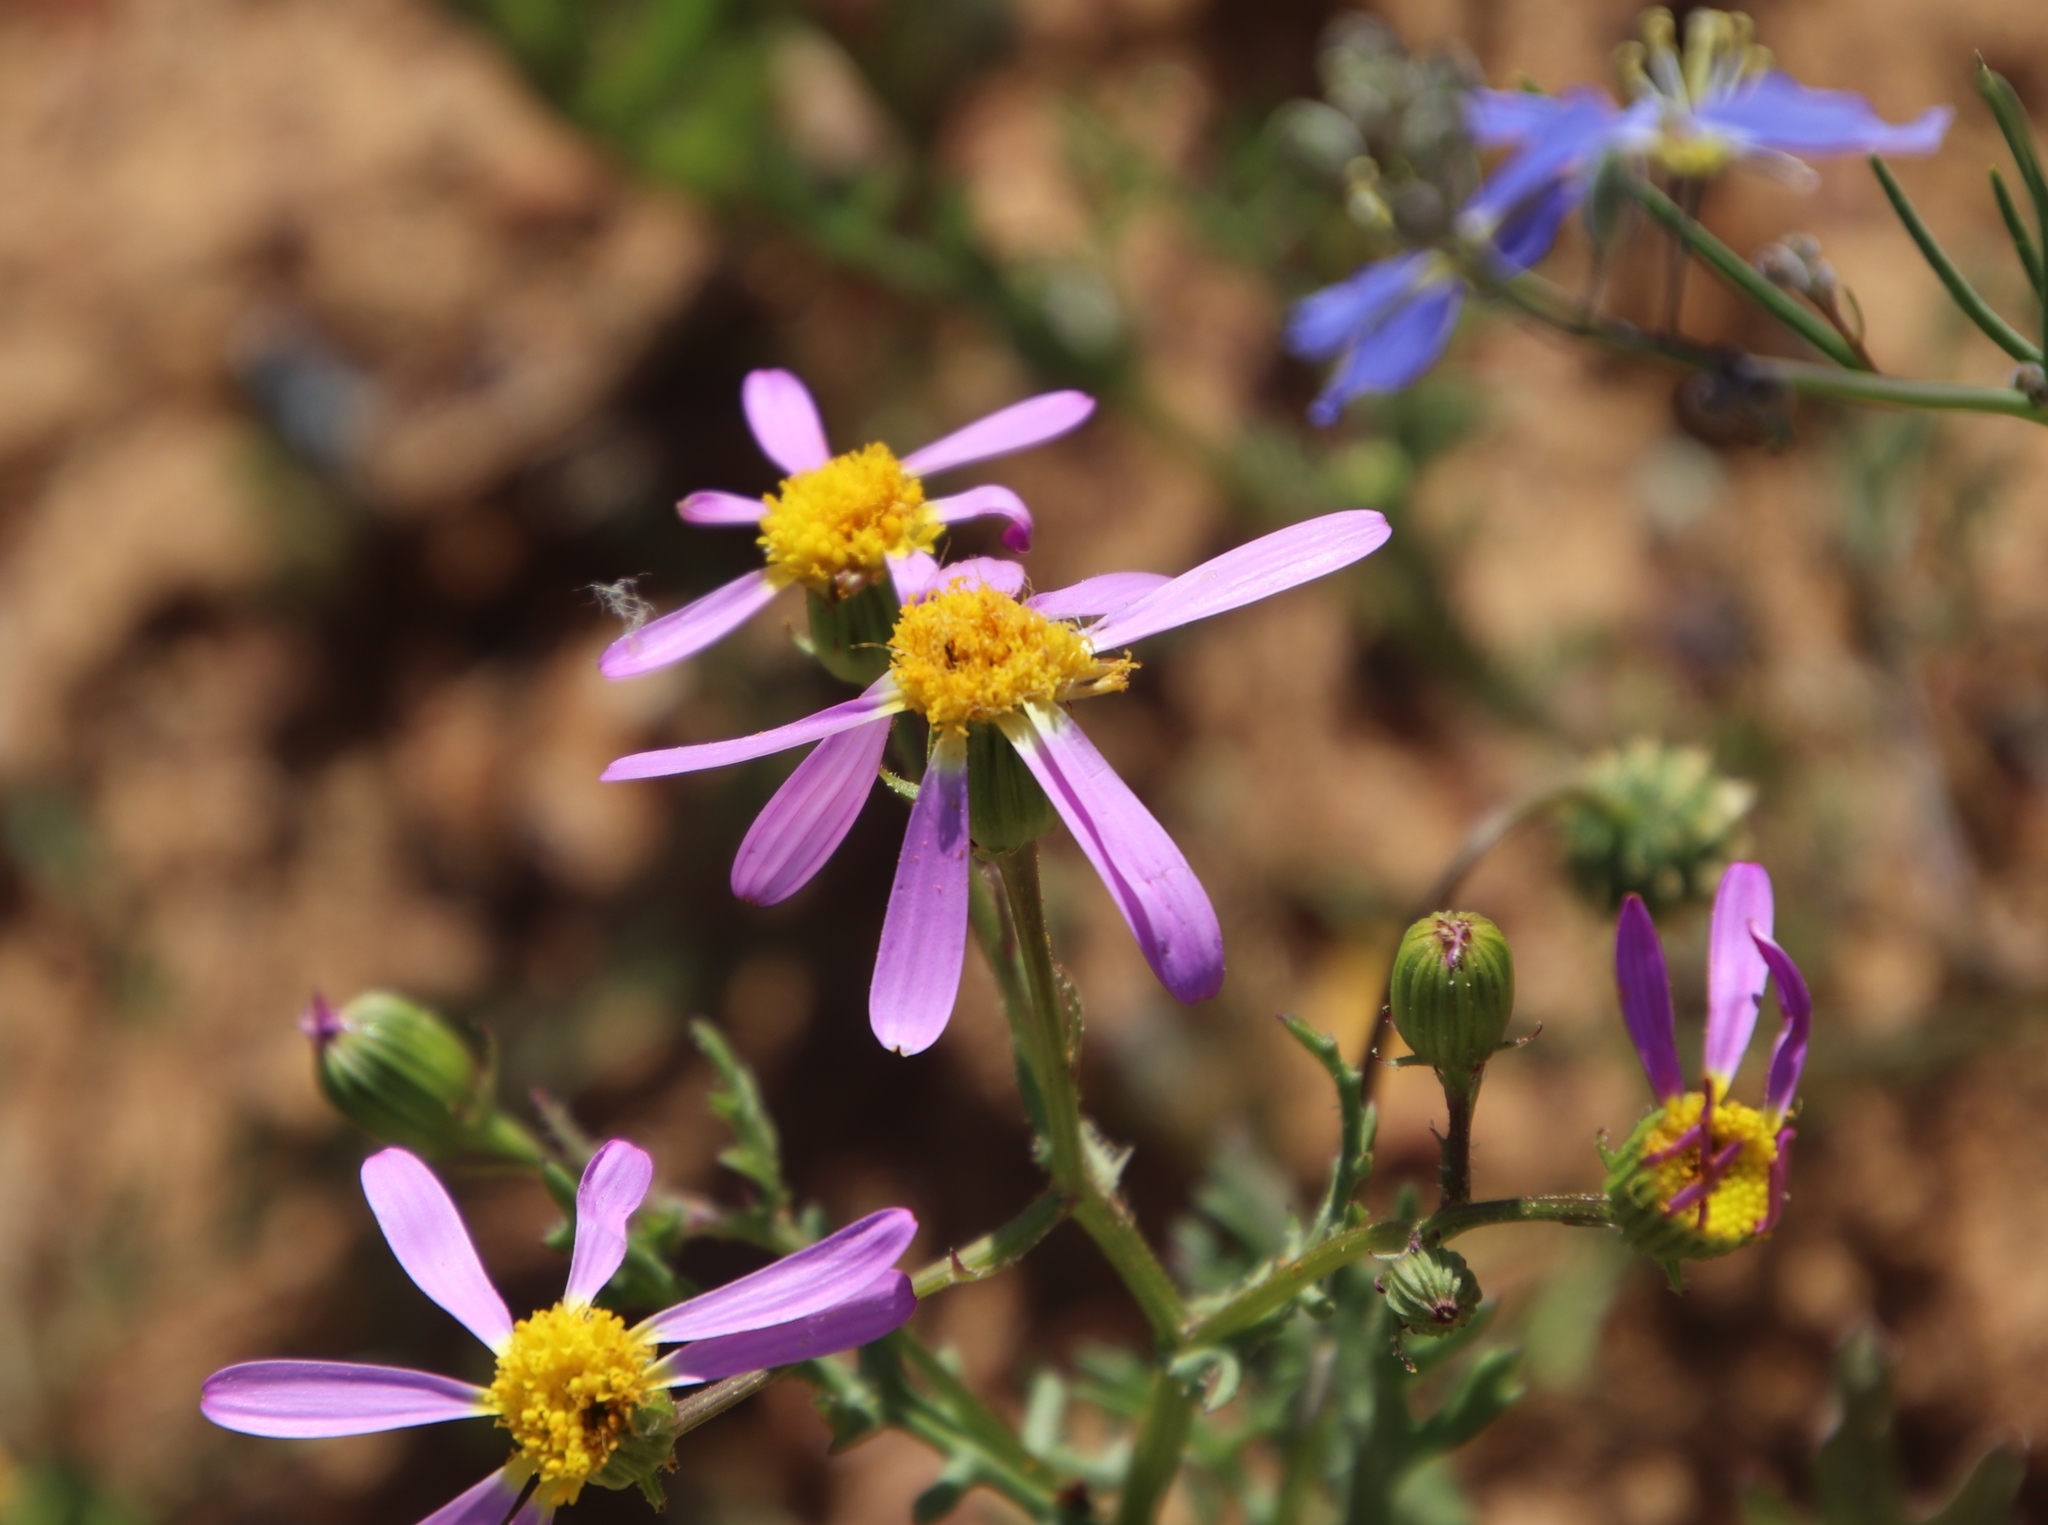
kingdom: Plantae
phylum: Tracheophyta
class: Magnoliopsida
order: Asterales
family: Asteraceae
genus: Senecio
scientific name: Senecio arenarius
